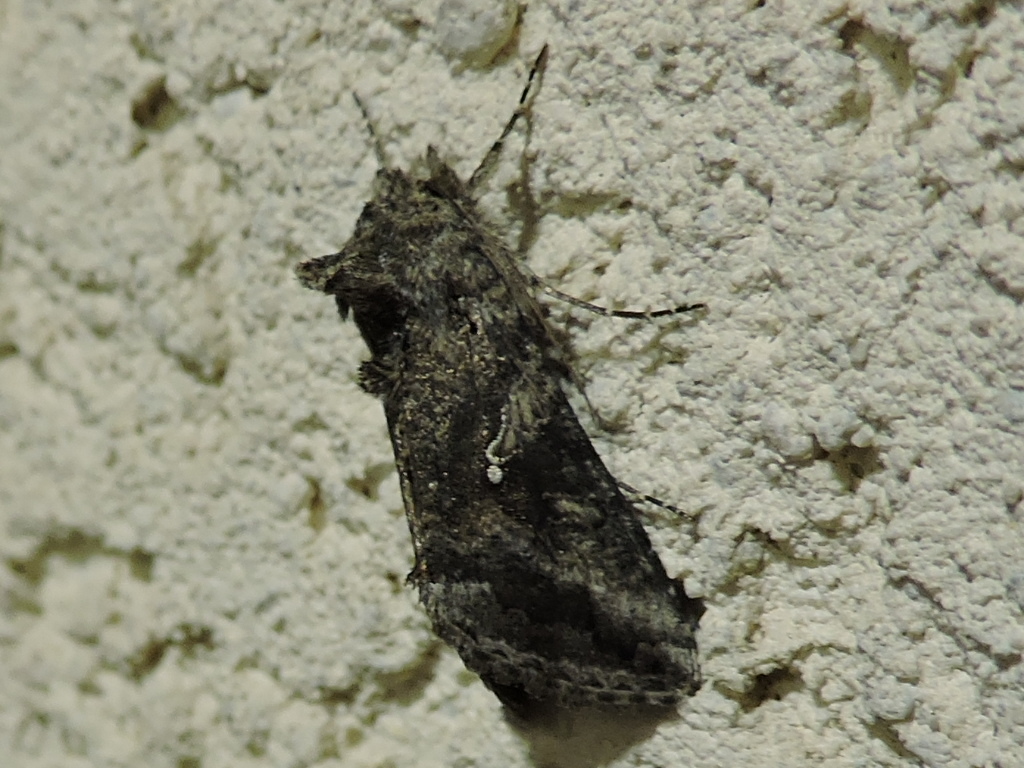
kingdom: Animalia
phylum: Arthropoda
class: Insecta
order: Lepidoptera
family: Noctuidae
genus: Rachiplusia
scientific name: Rachiplusia ou
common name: Gray looper moth
